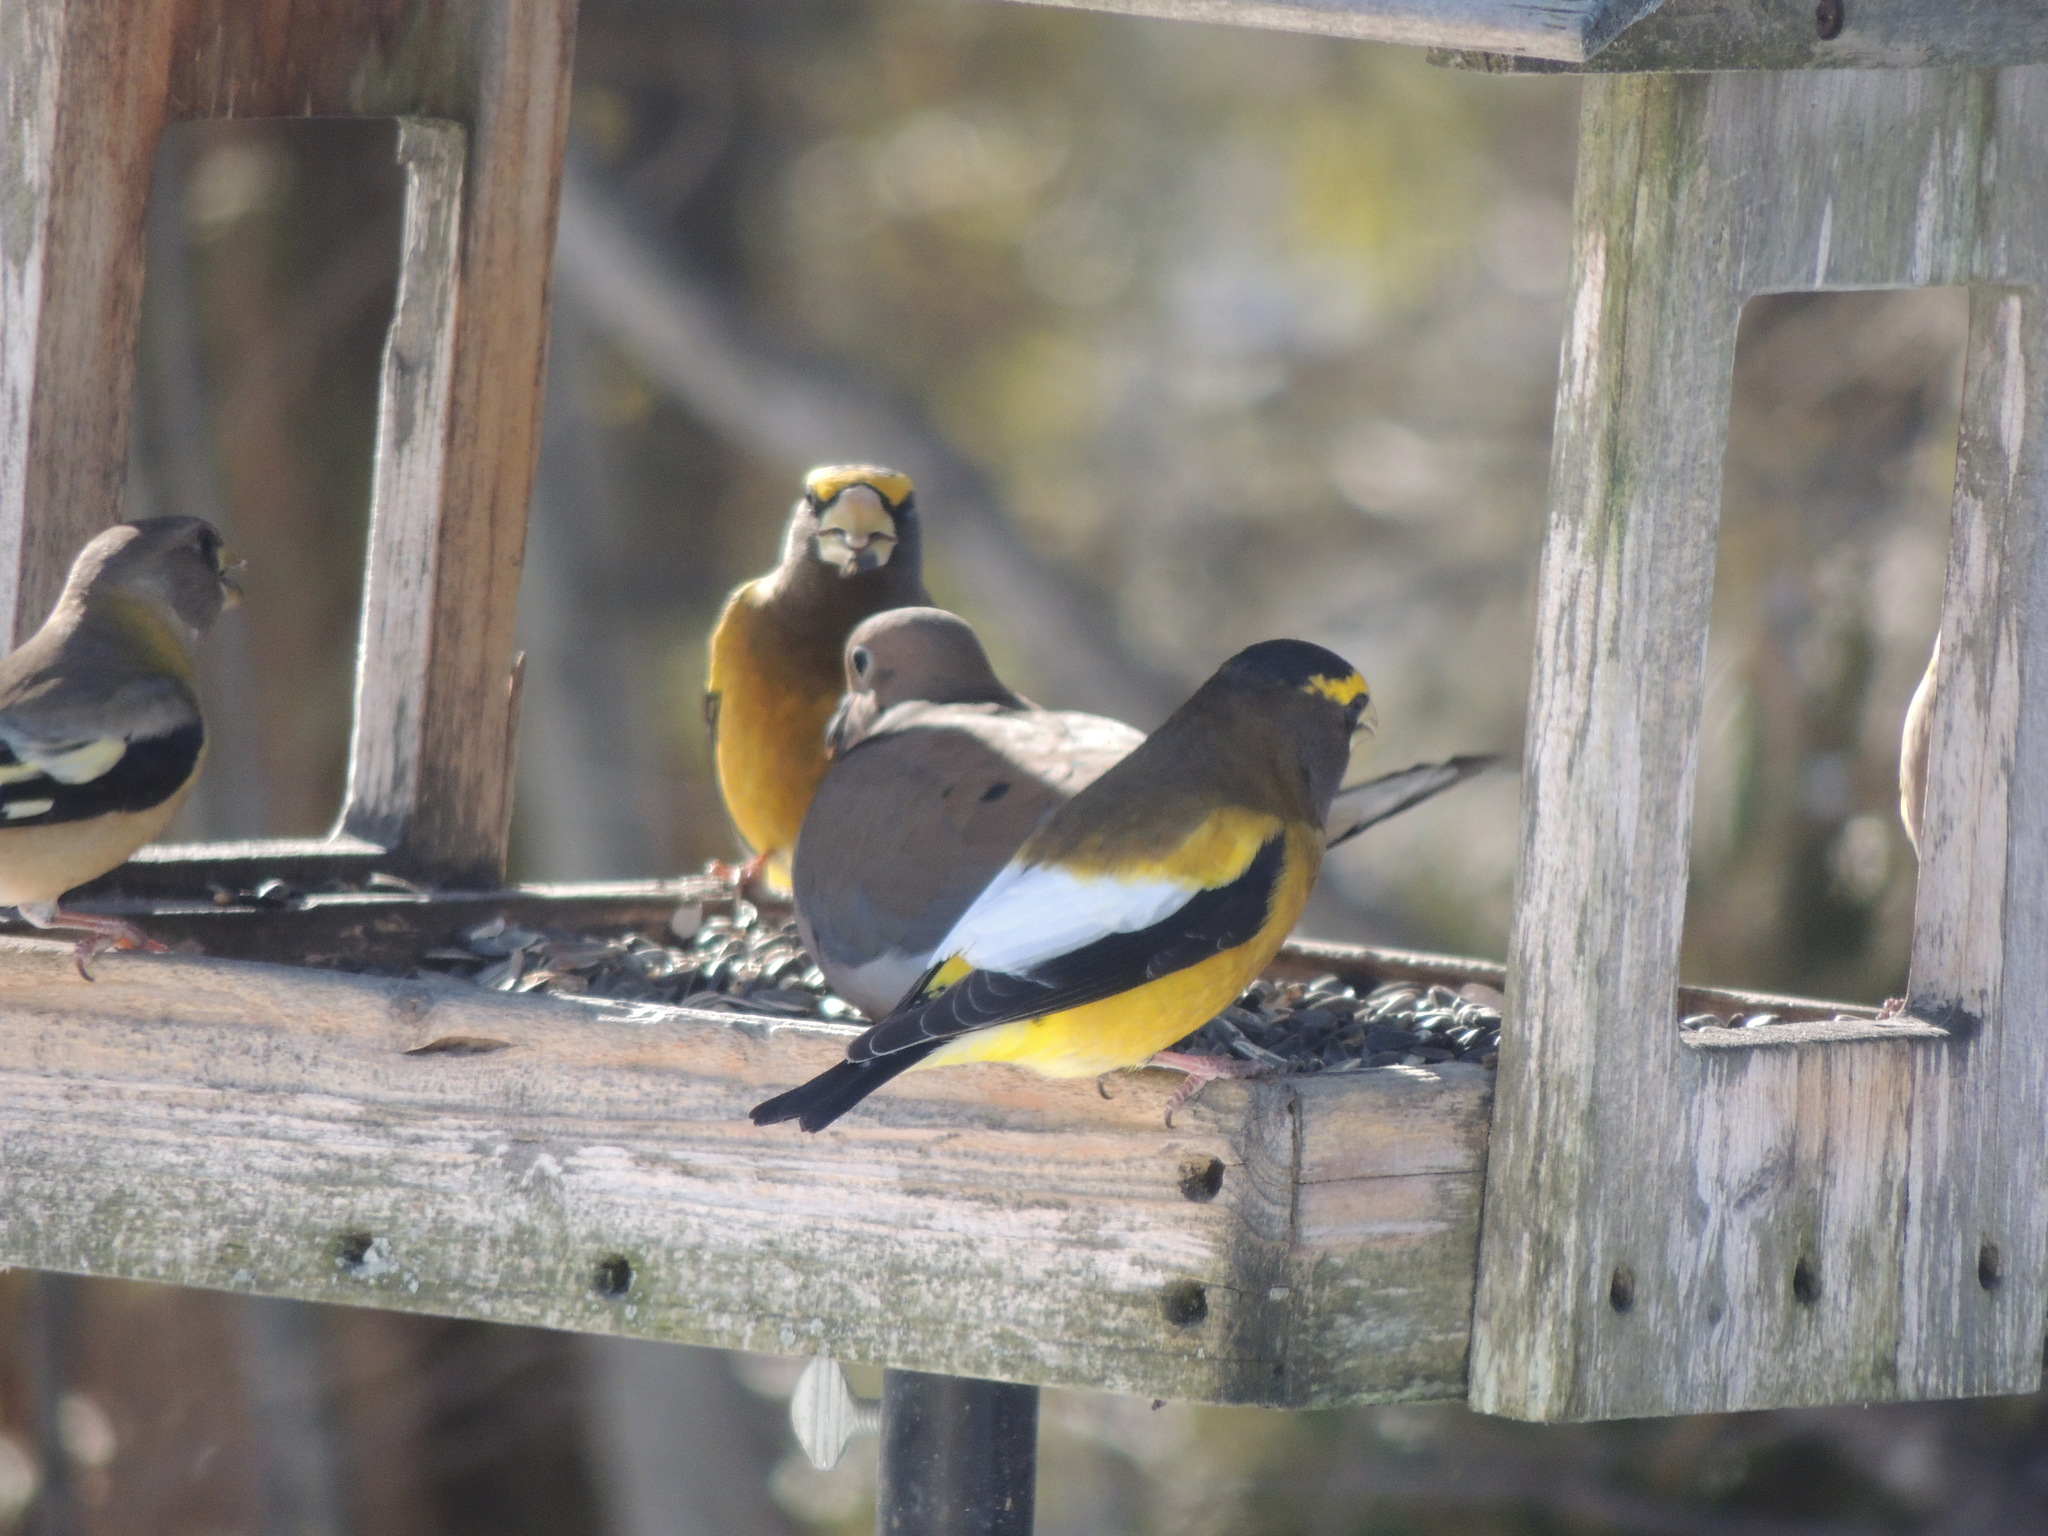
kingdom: Animalia
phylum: Chordata
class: Aves
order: Passeriformes
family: Fringillidae
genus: Hesperiphona
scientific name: Hesperiphona vespertina
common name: Evening grosbeak
